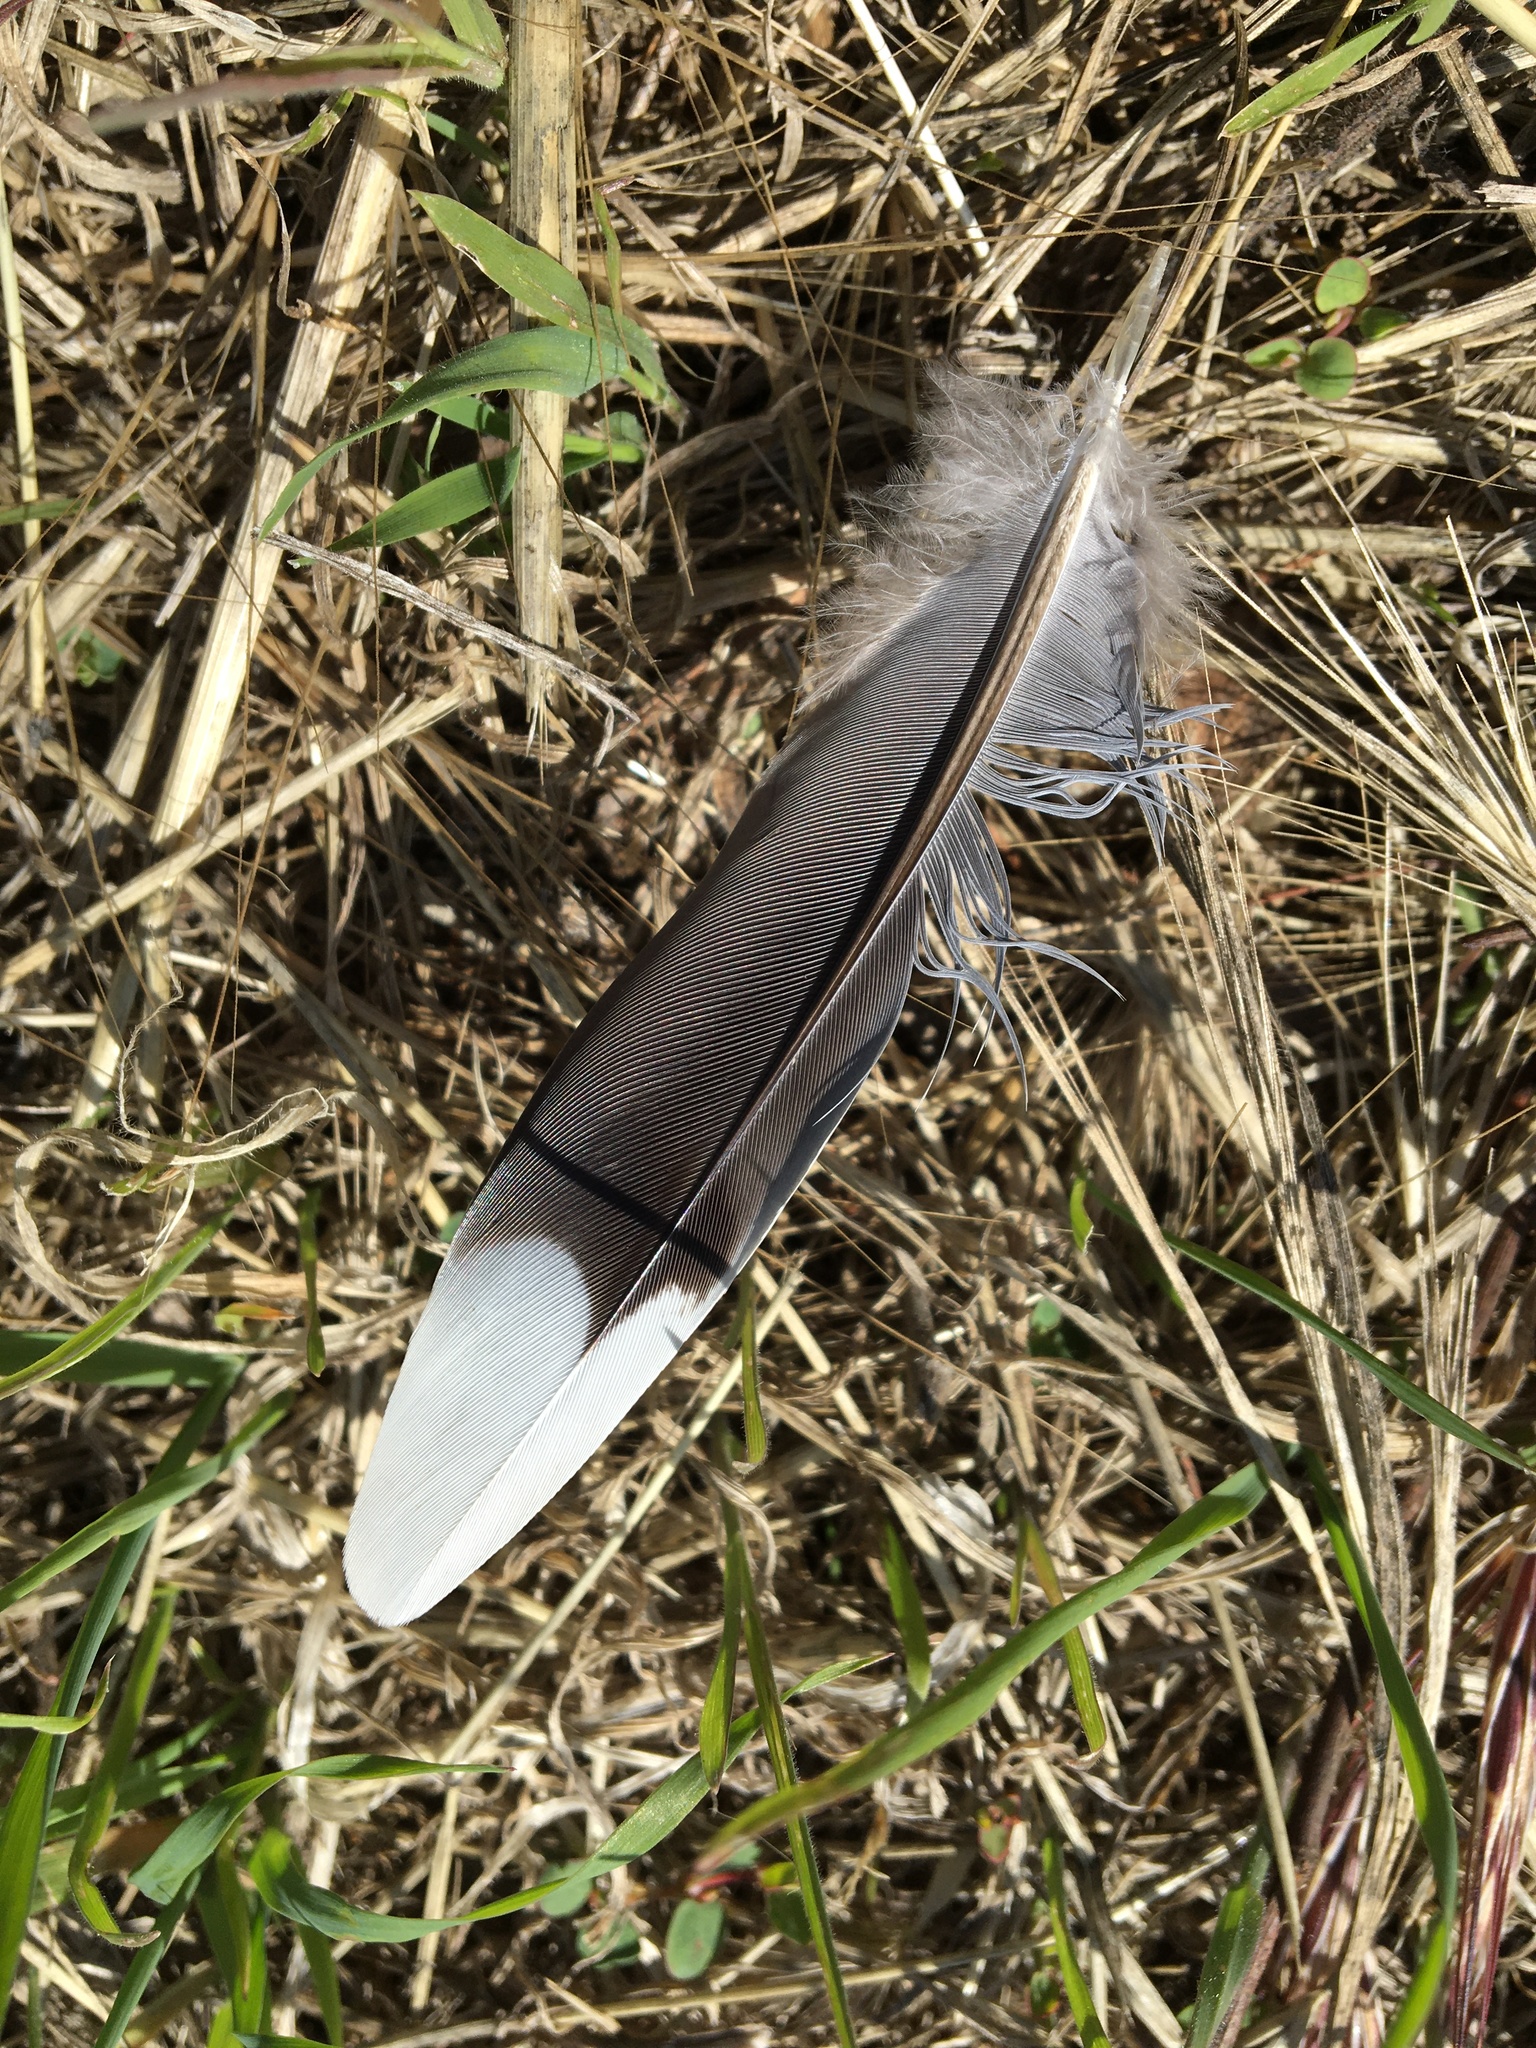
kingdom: Animalia
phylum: Chordata
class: Aves
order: Columbiformes
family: Columbidae
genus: Zenaida
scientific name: Zenaida macroura
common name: Mourning dove
